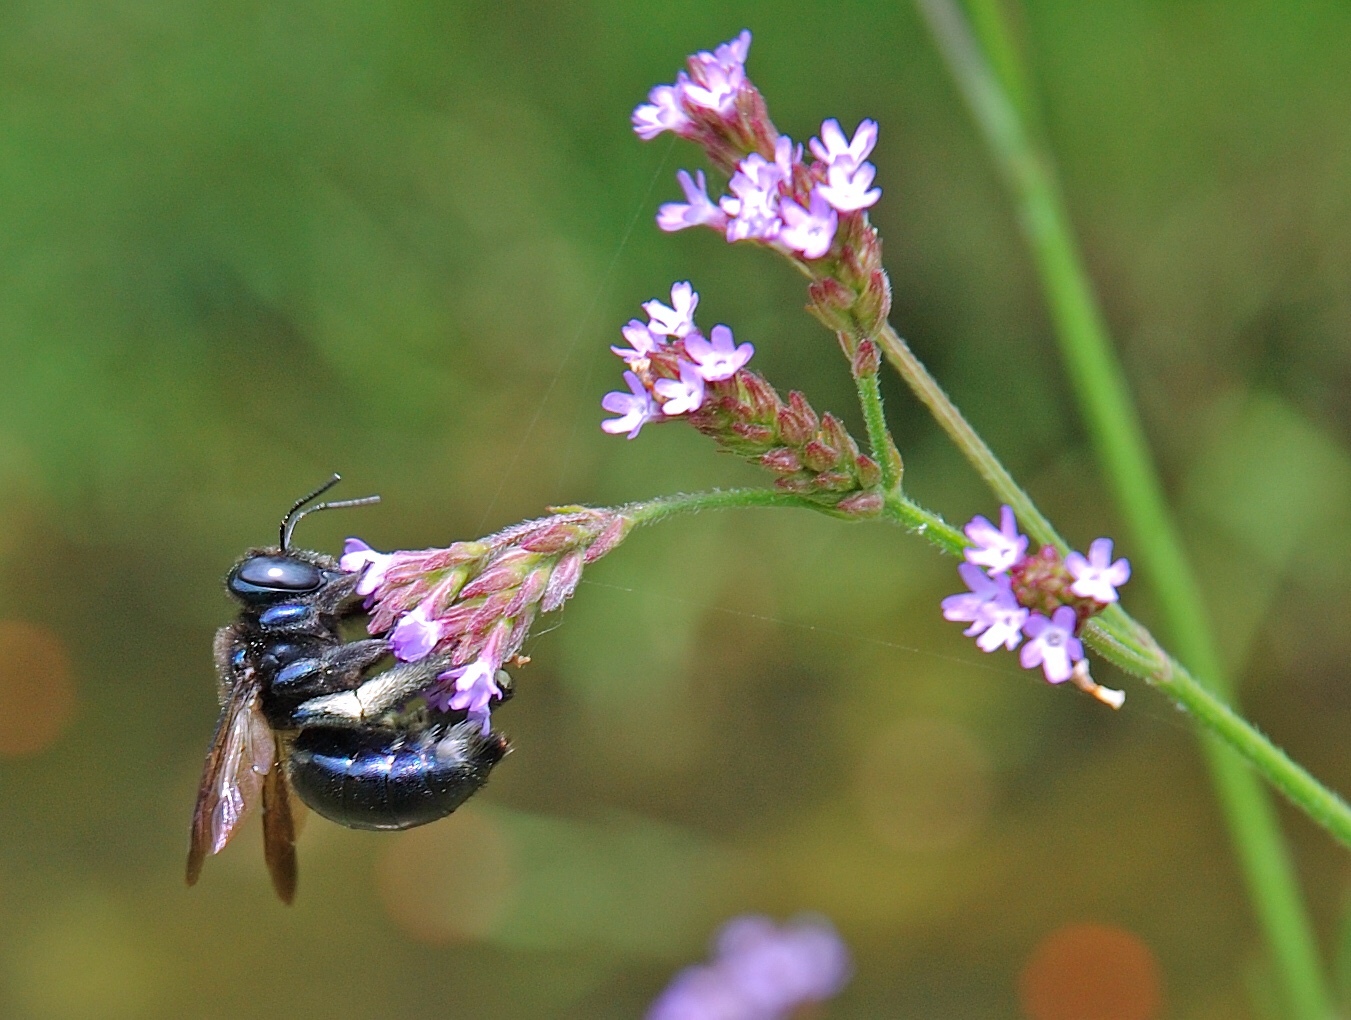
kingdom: Animalia
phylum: Arthropoda
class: Insecta
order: Hymenoptera
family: Apidae
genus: Xylocopa
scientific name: Xylocopa micans
